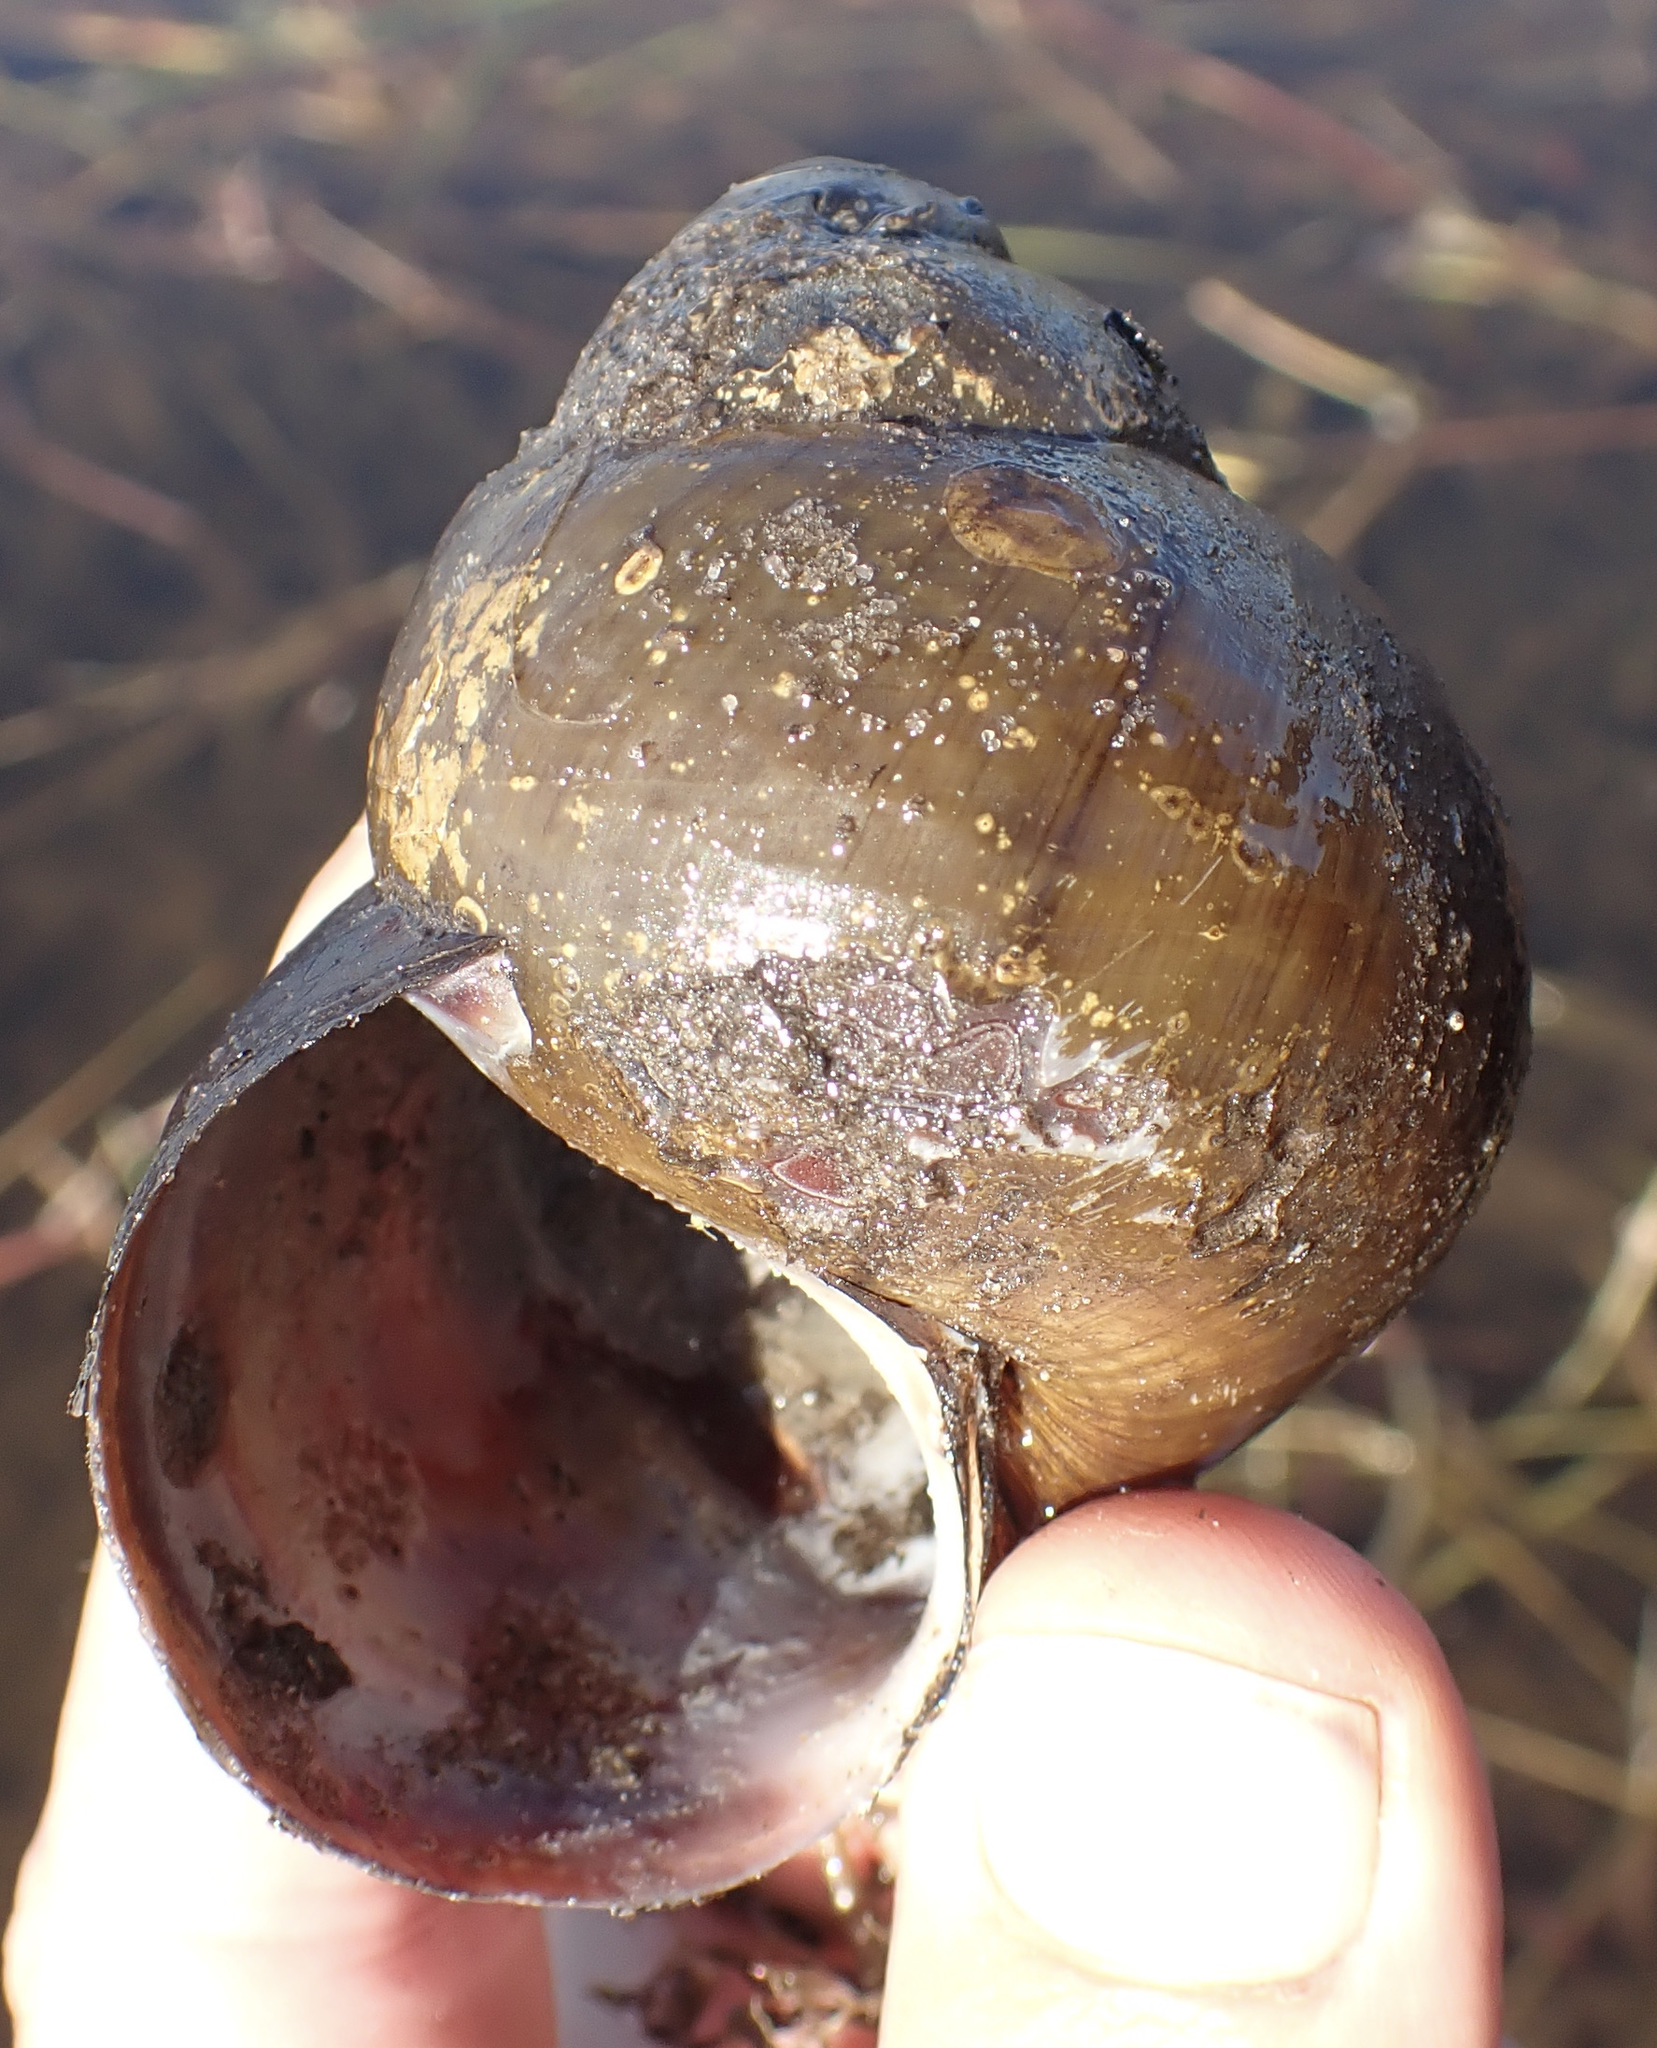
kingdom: Animalia
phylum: Mollusca
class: Gastropoda
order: Architaenioglossa
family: Ampullariidae
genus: Lanistes
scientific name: Lanistes ovum
